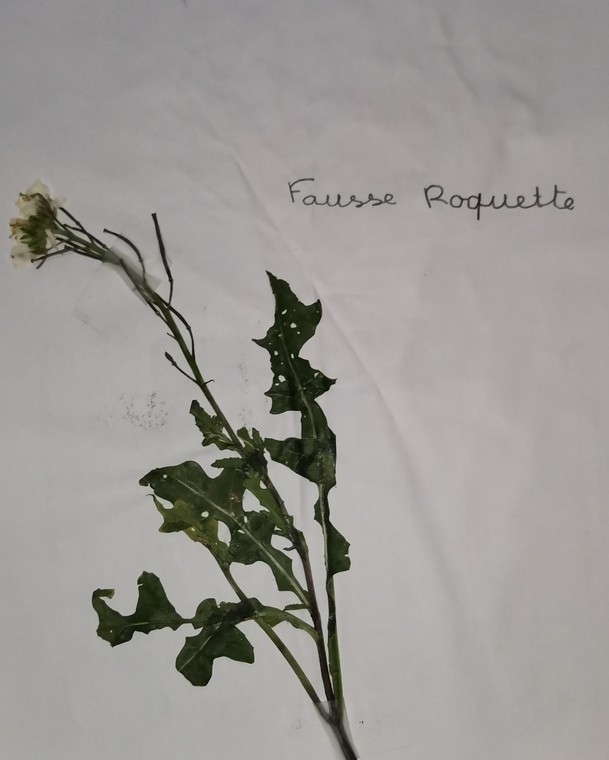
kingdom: Plantae
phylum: Tracheophyta
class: Magnoliopsida
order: Brassicales
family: Brassicaceae
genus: Diplotaxis
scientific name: Diplotaxis erucoides
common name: White rocket
